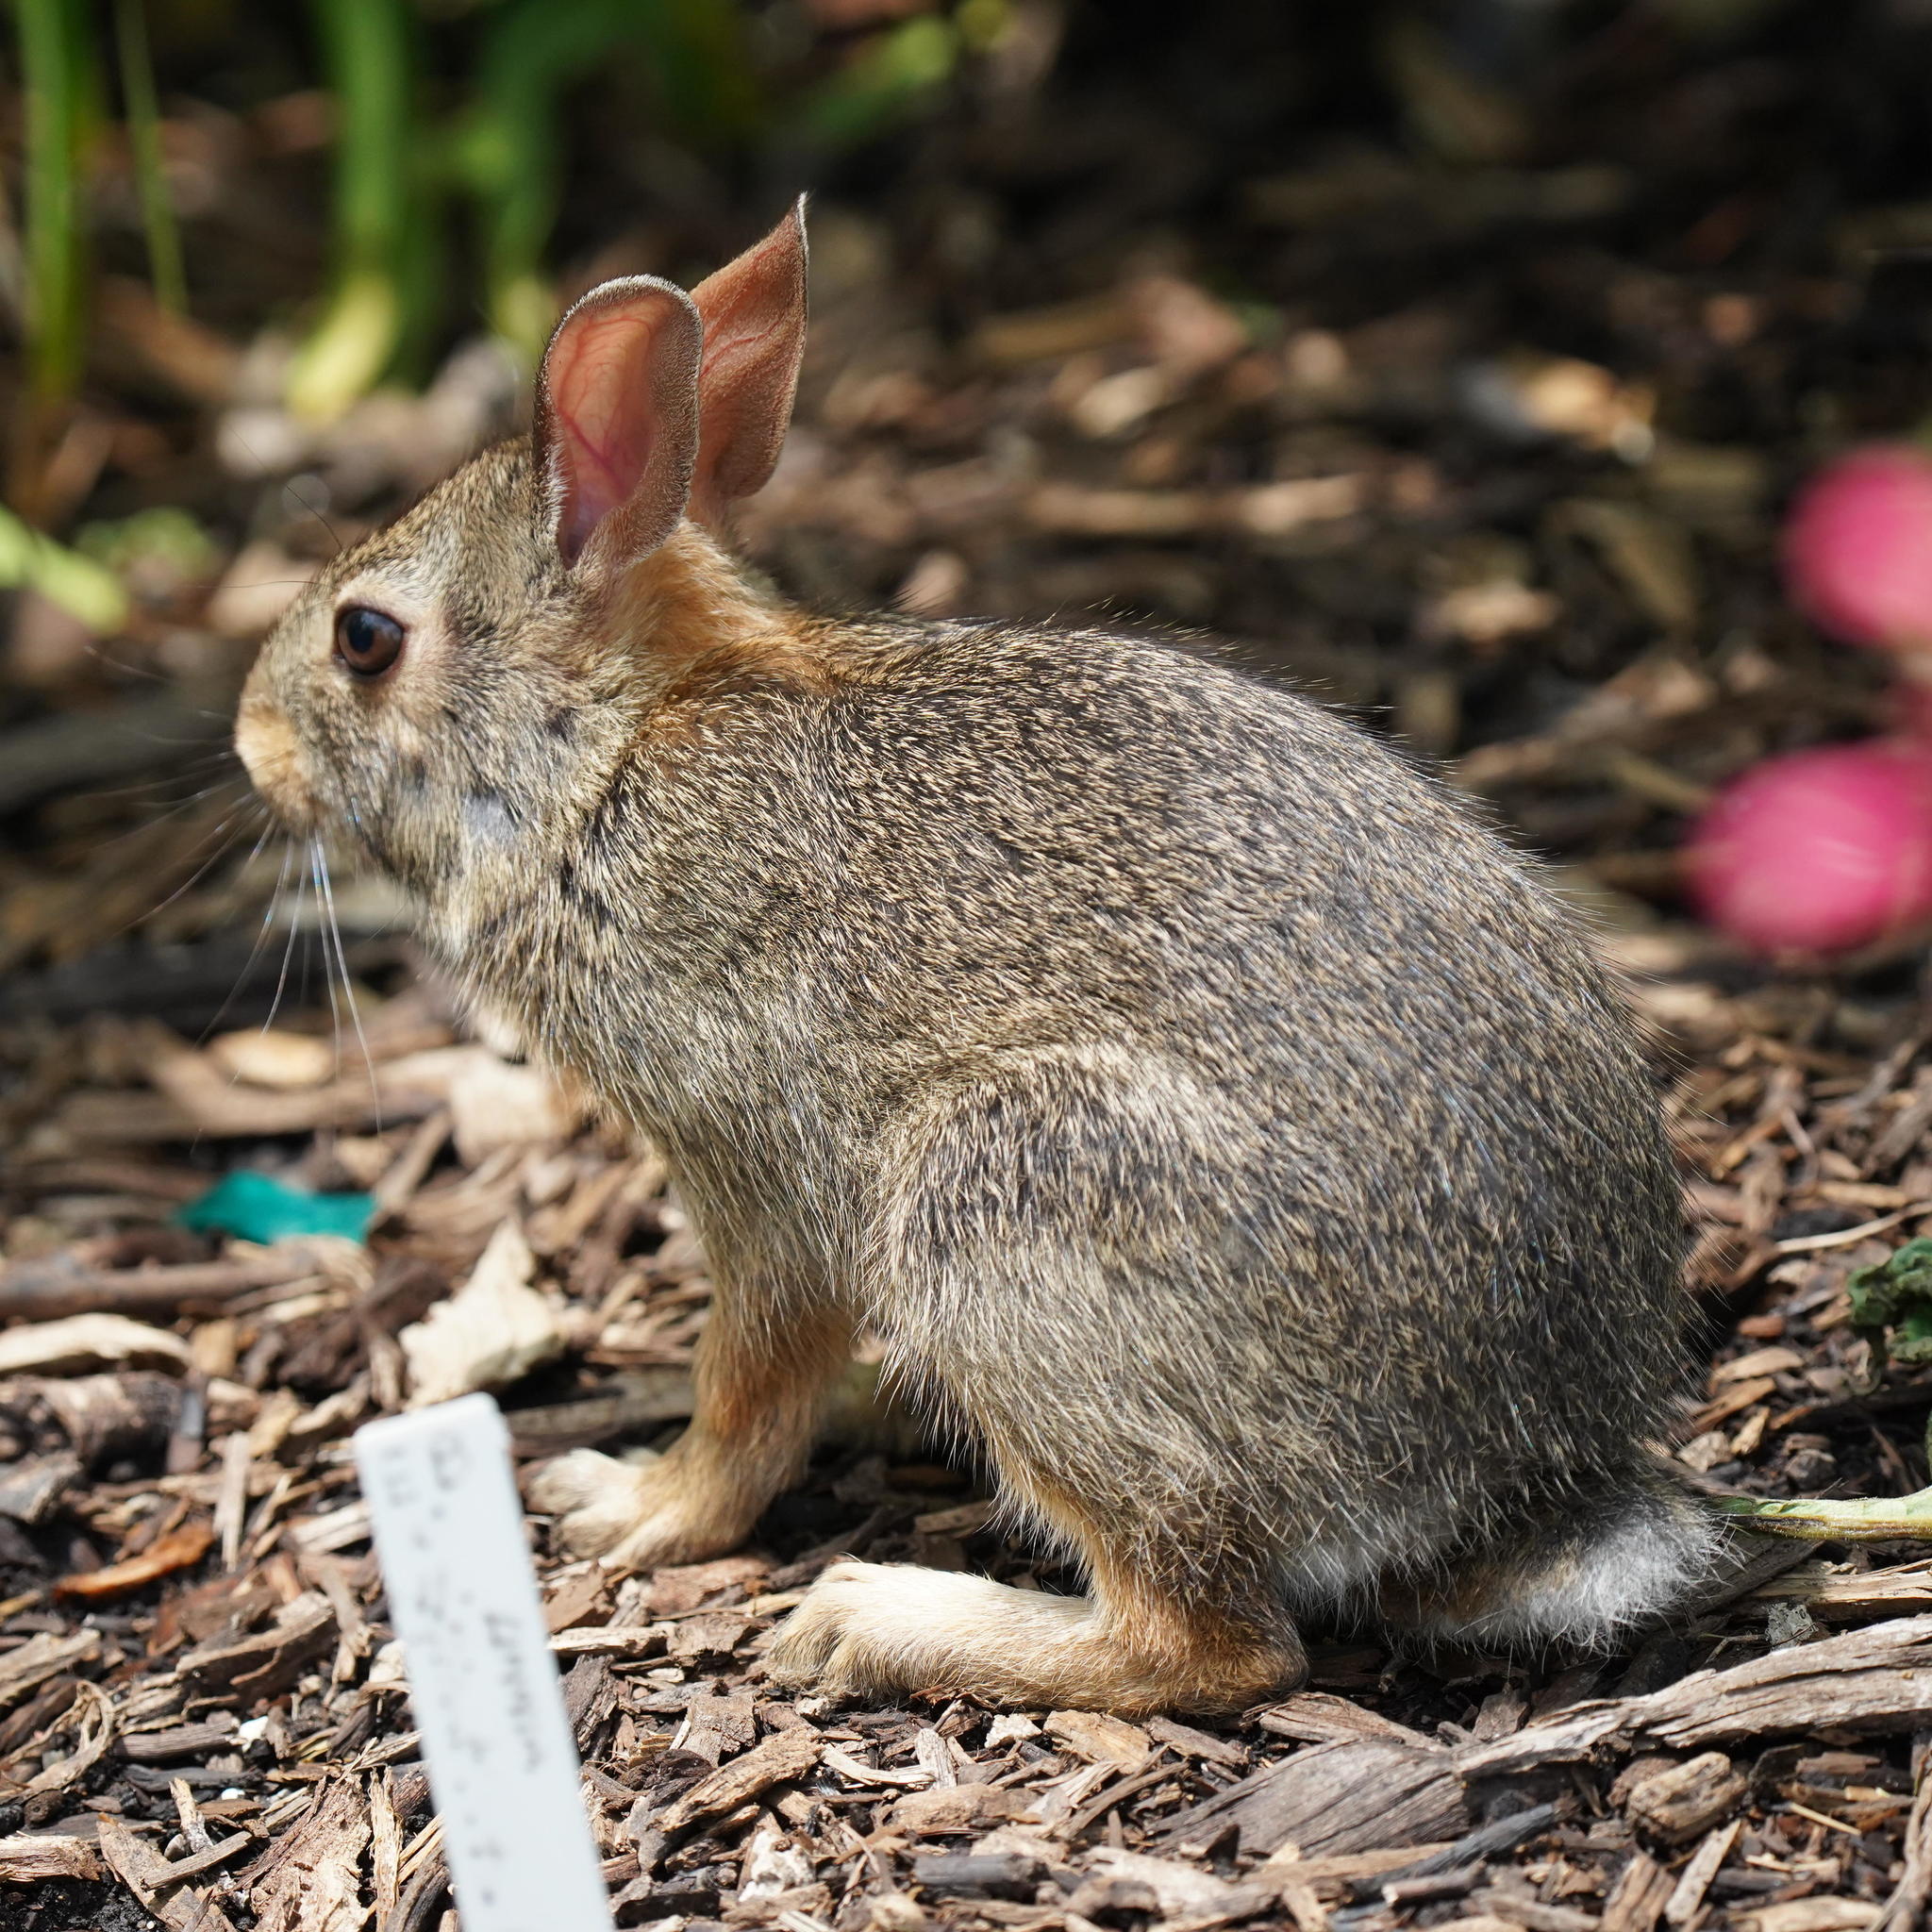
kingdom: Animalia
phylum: Chordata
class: Mammalia
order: Lagomorpha
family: Leporidae
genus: Sylvilagus
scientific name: Sylvilagus floridanus
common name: Eastern cottontail
